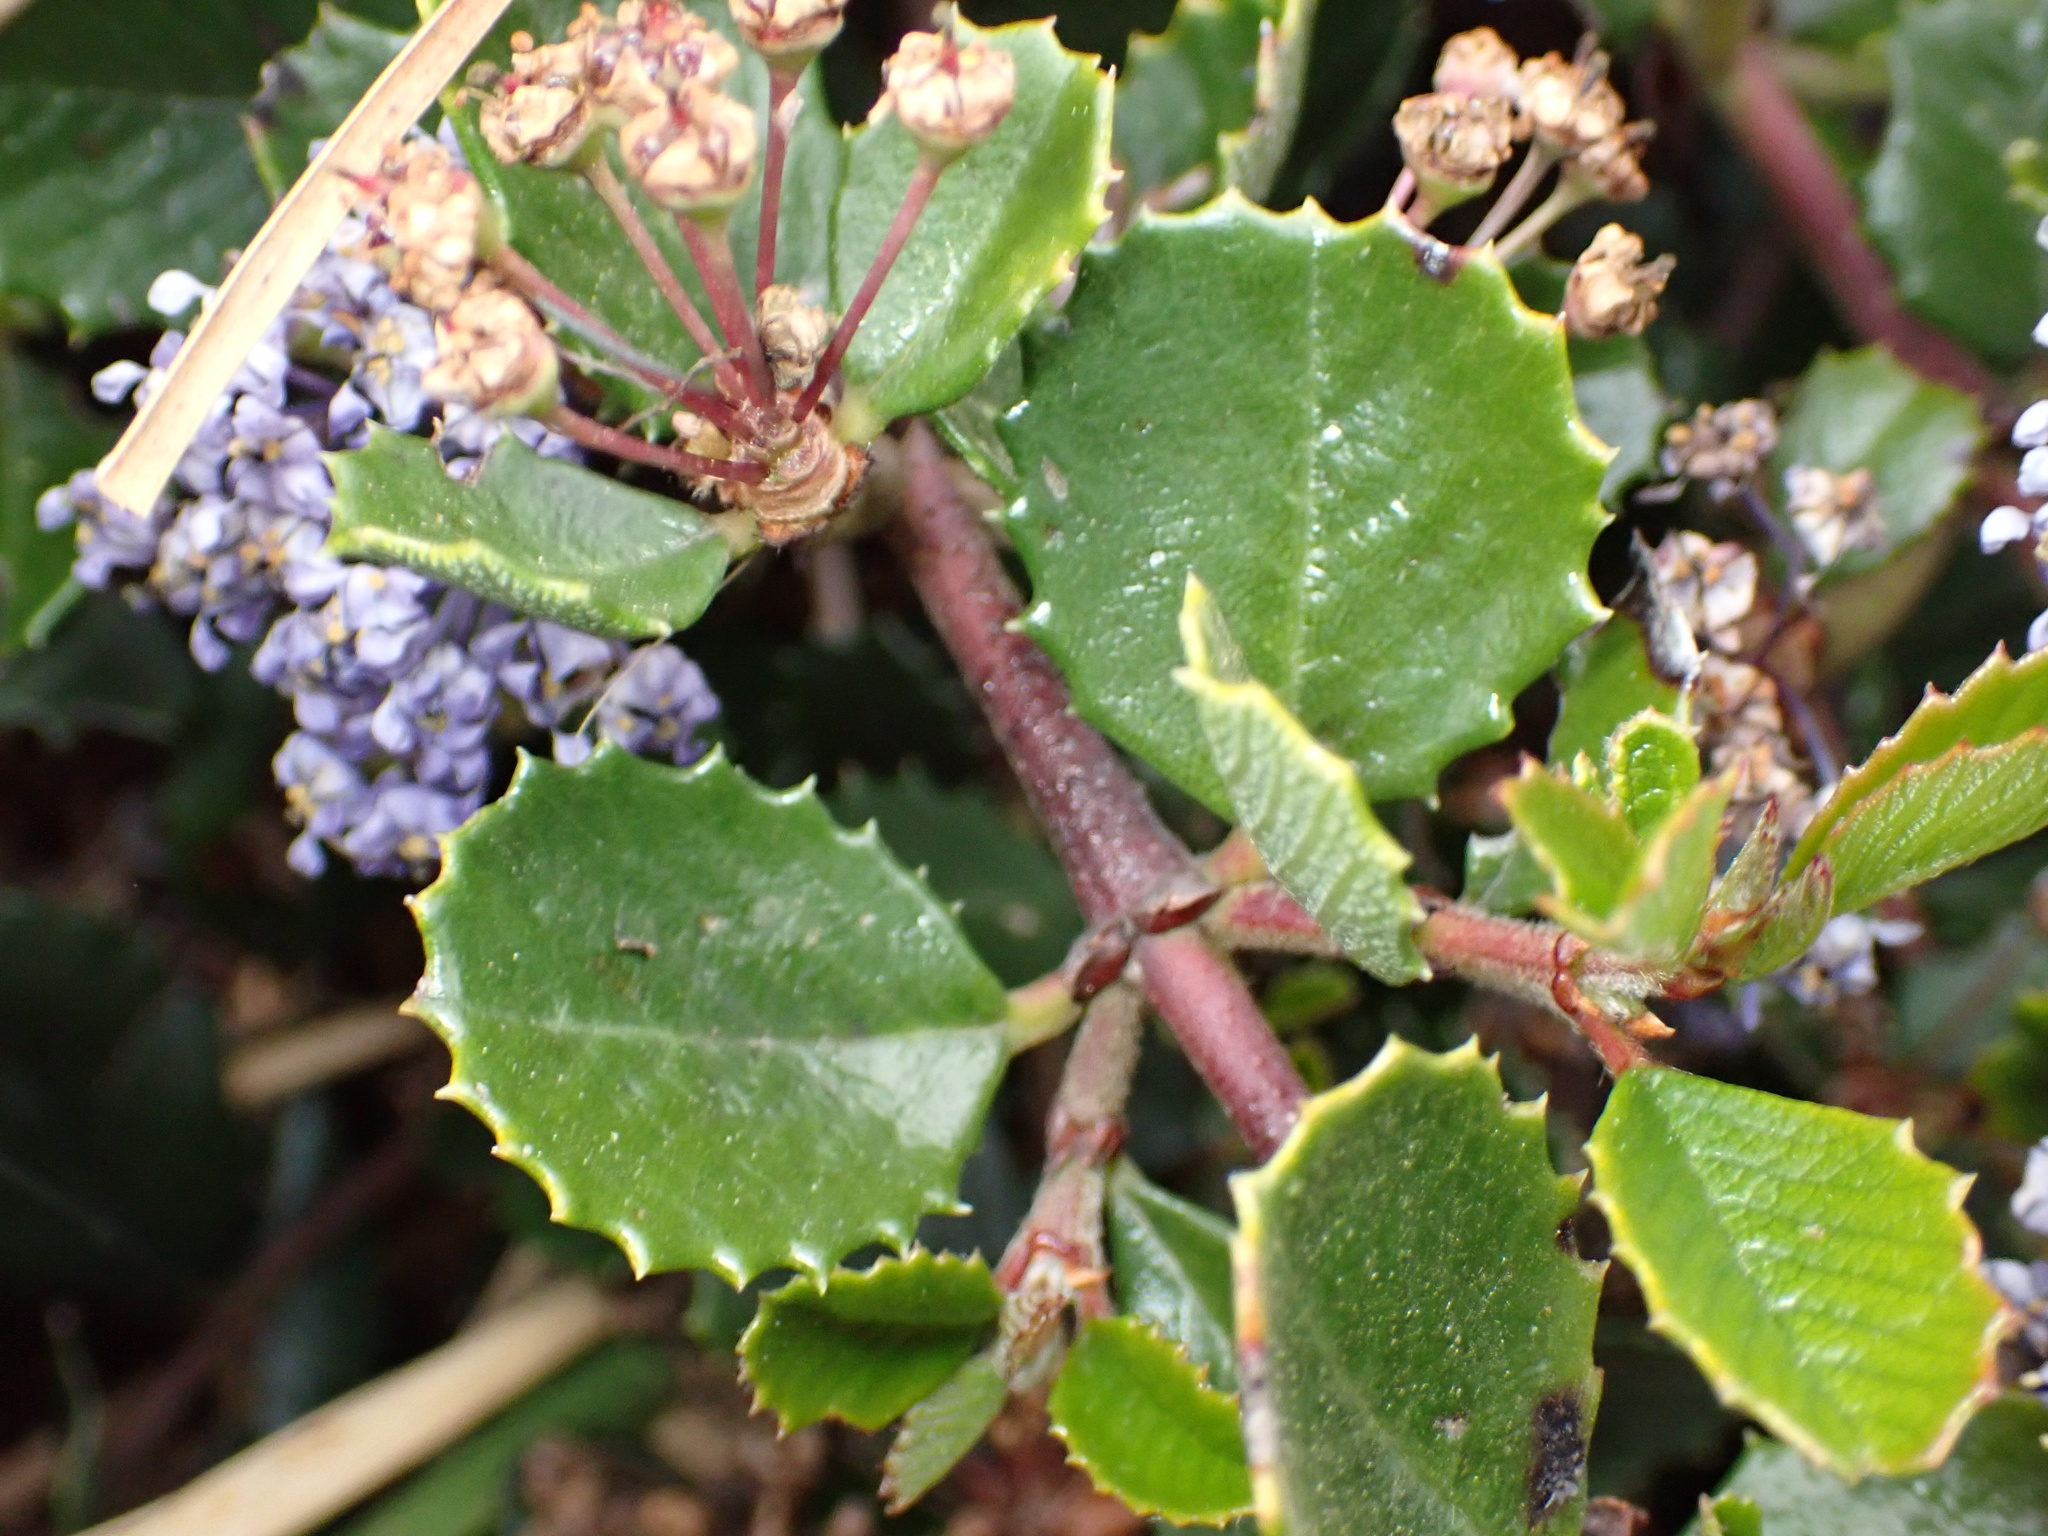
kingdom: Plantae
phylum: Tracheophyta
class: Magnoliopsida
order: Rosales
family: Rhamnaceae
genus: Ceanothus
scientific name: Ceanothus gloriosus
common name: Point reyes ceanothus
